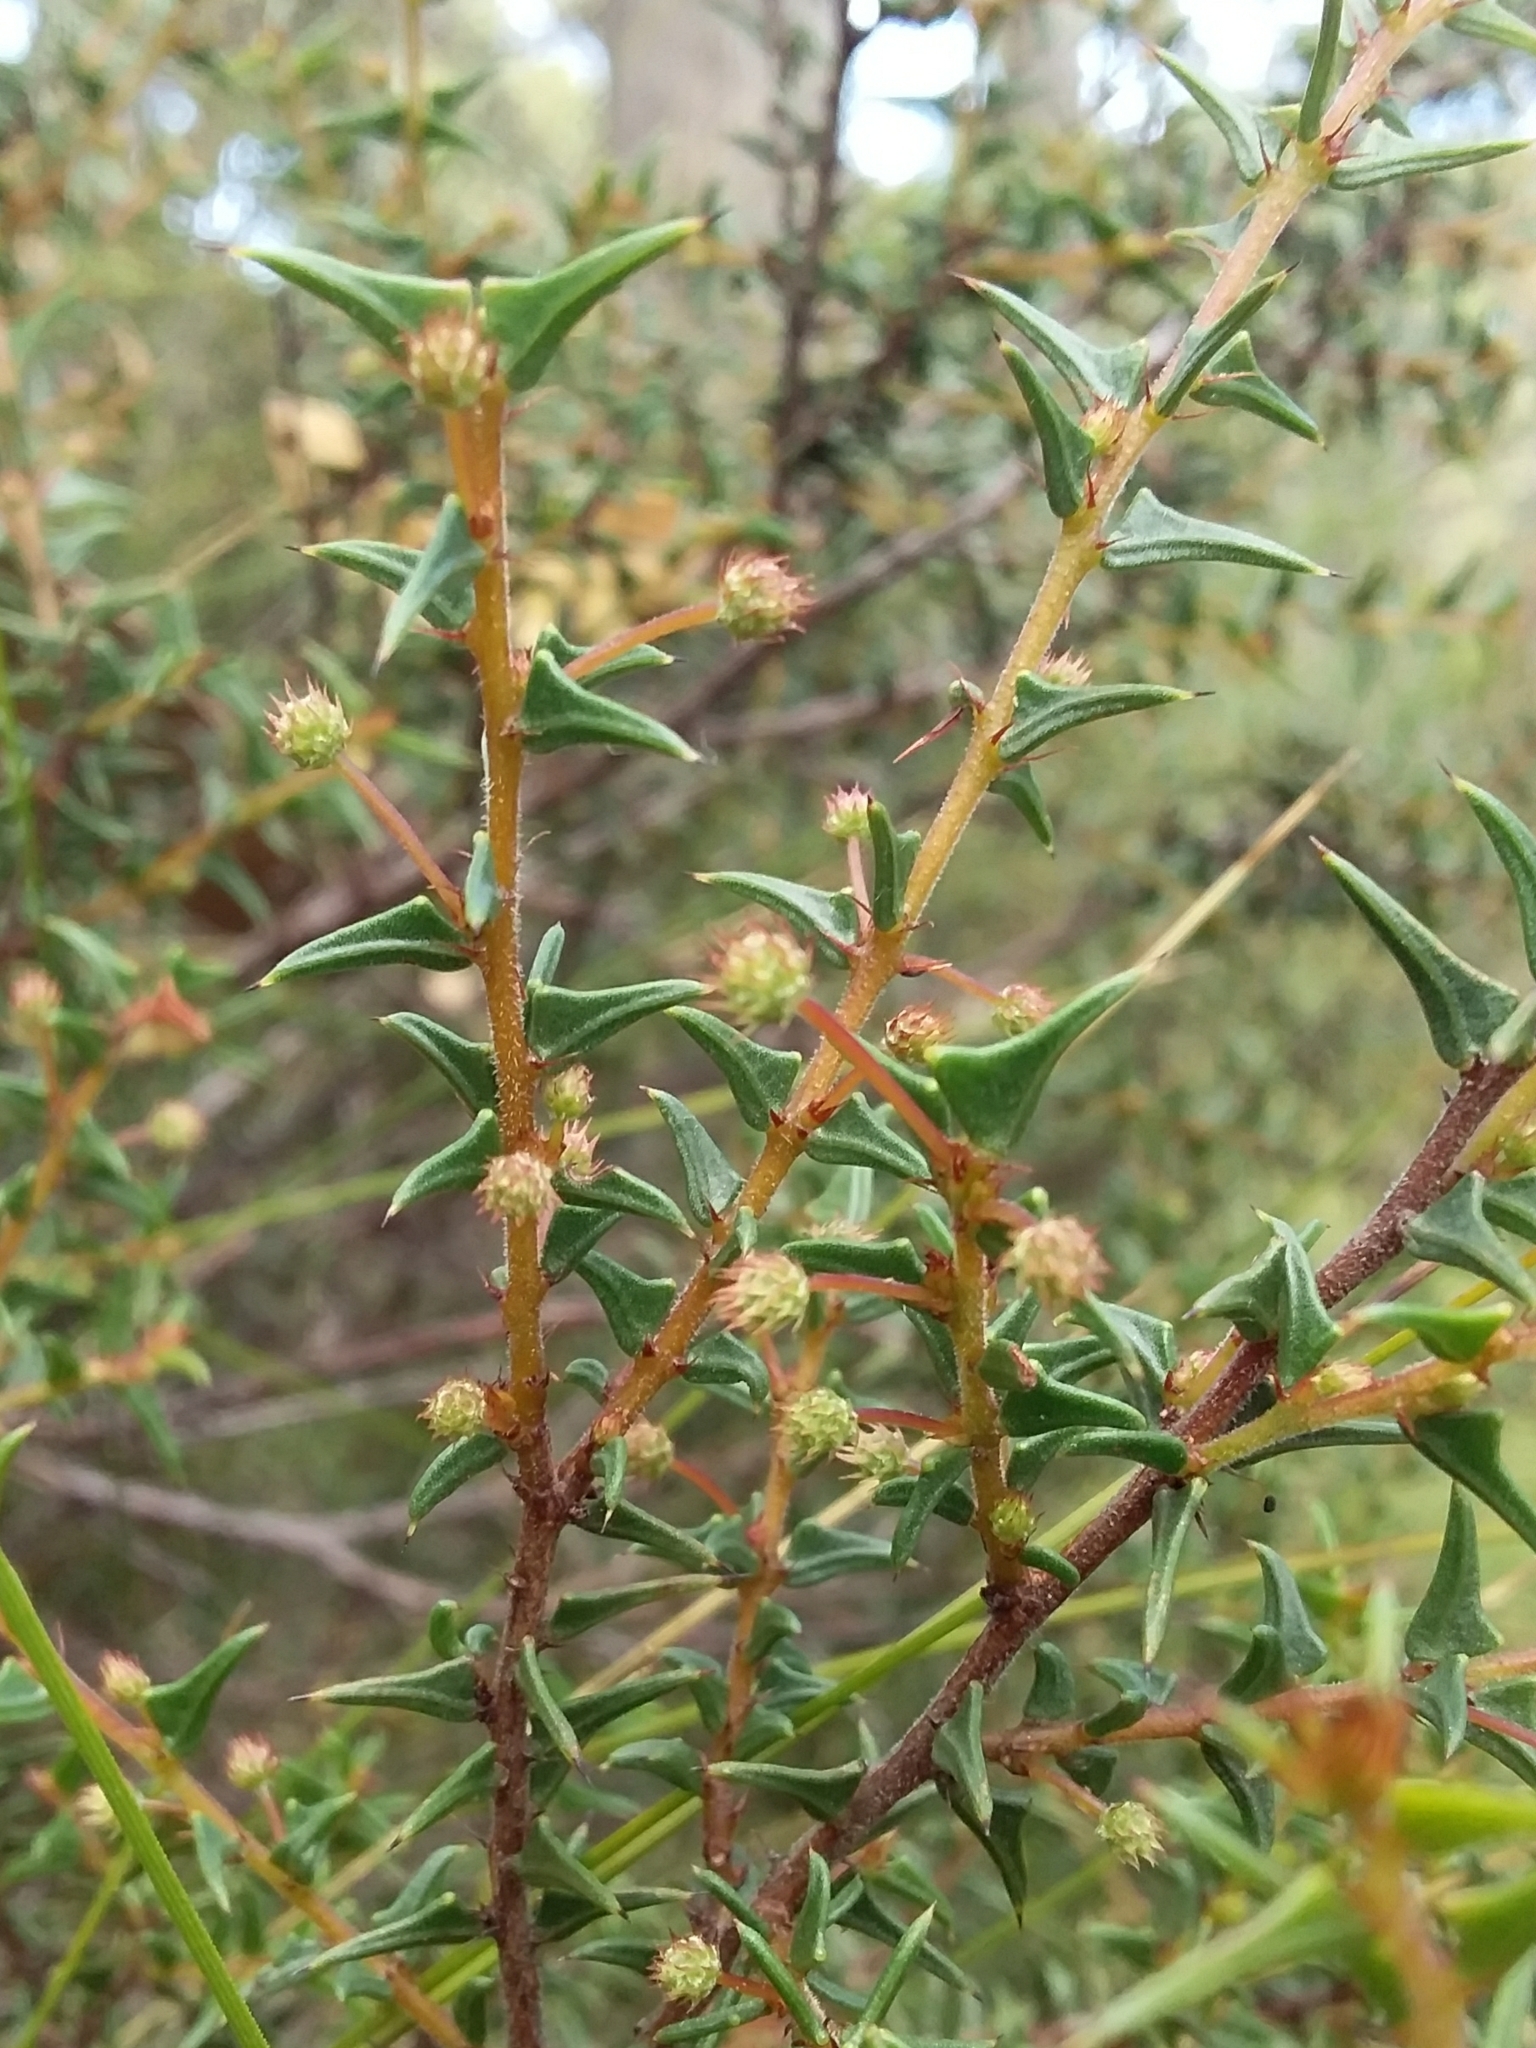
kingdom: Plantae
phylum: Tracheophyta
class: Magnoliopsida
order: Fabales
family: Fabaceae
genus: Acacia
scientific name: Acacia gunnii
